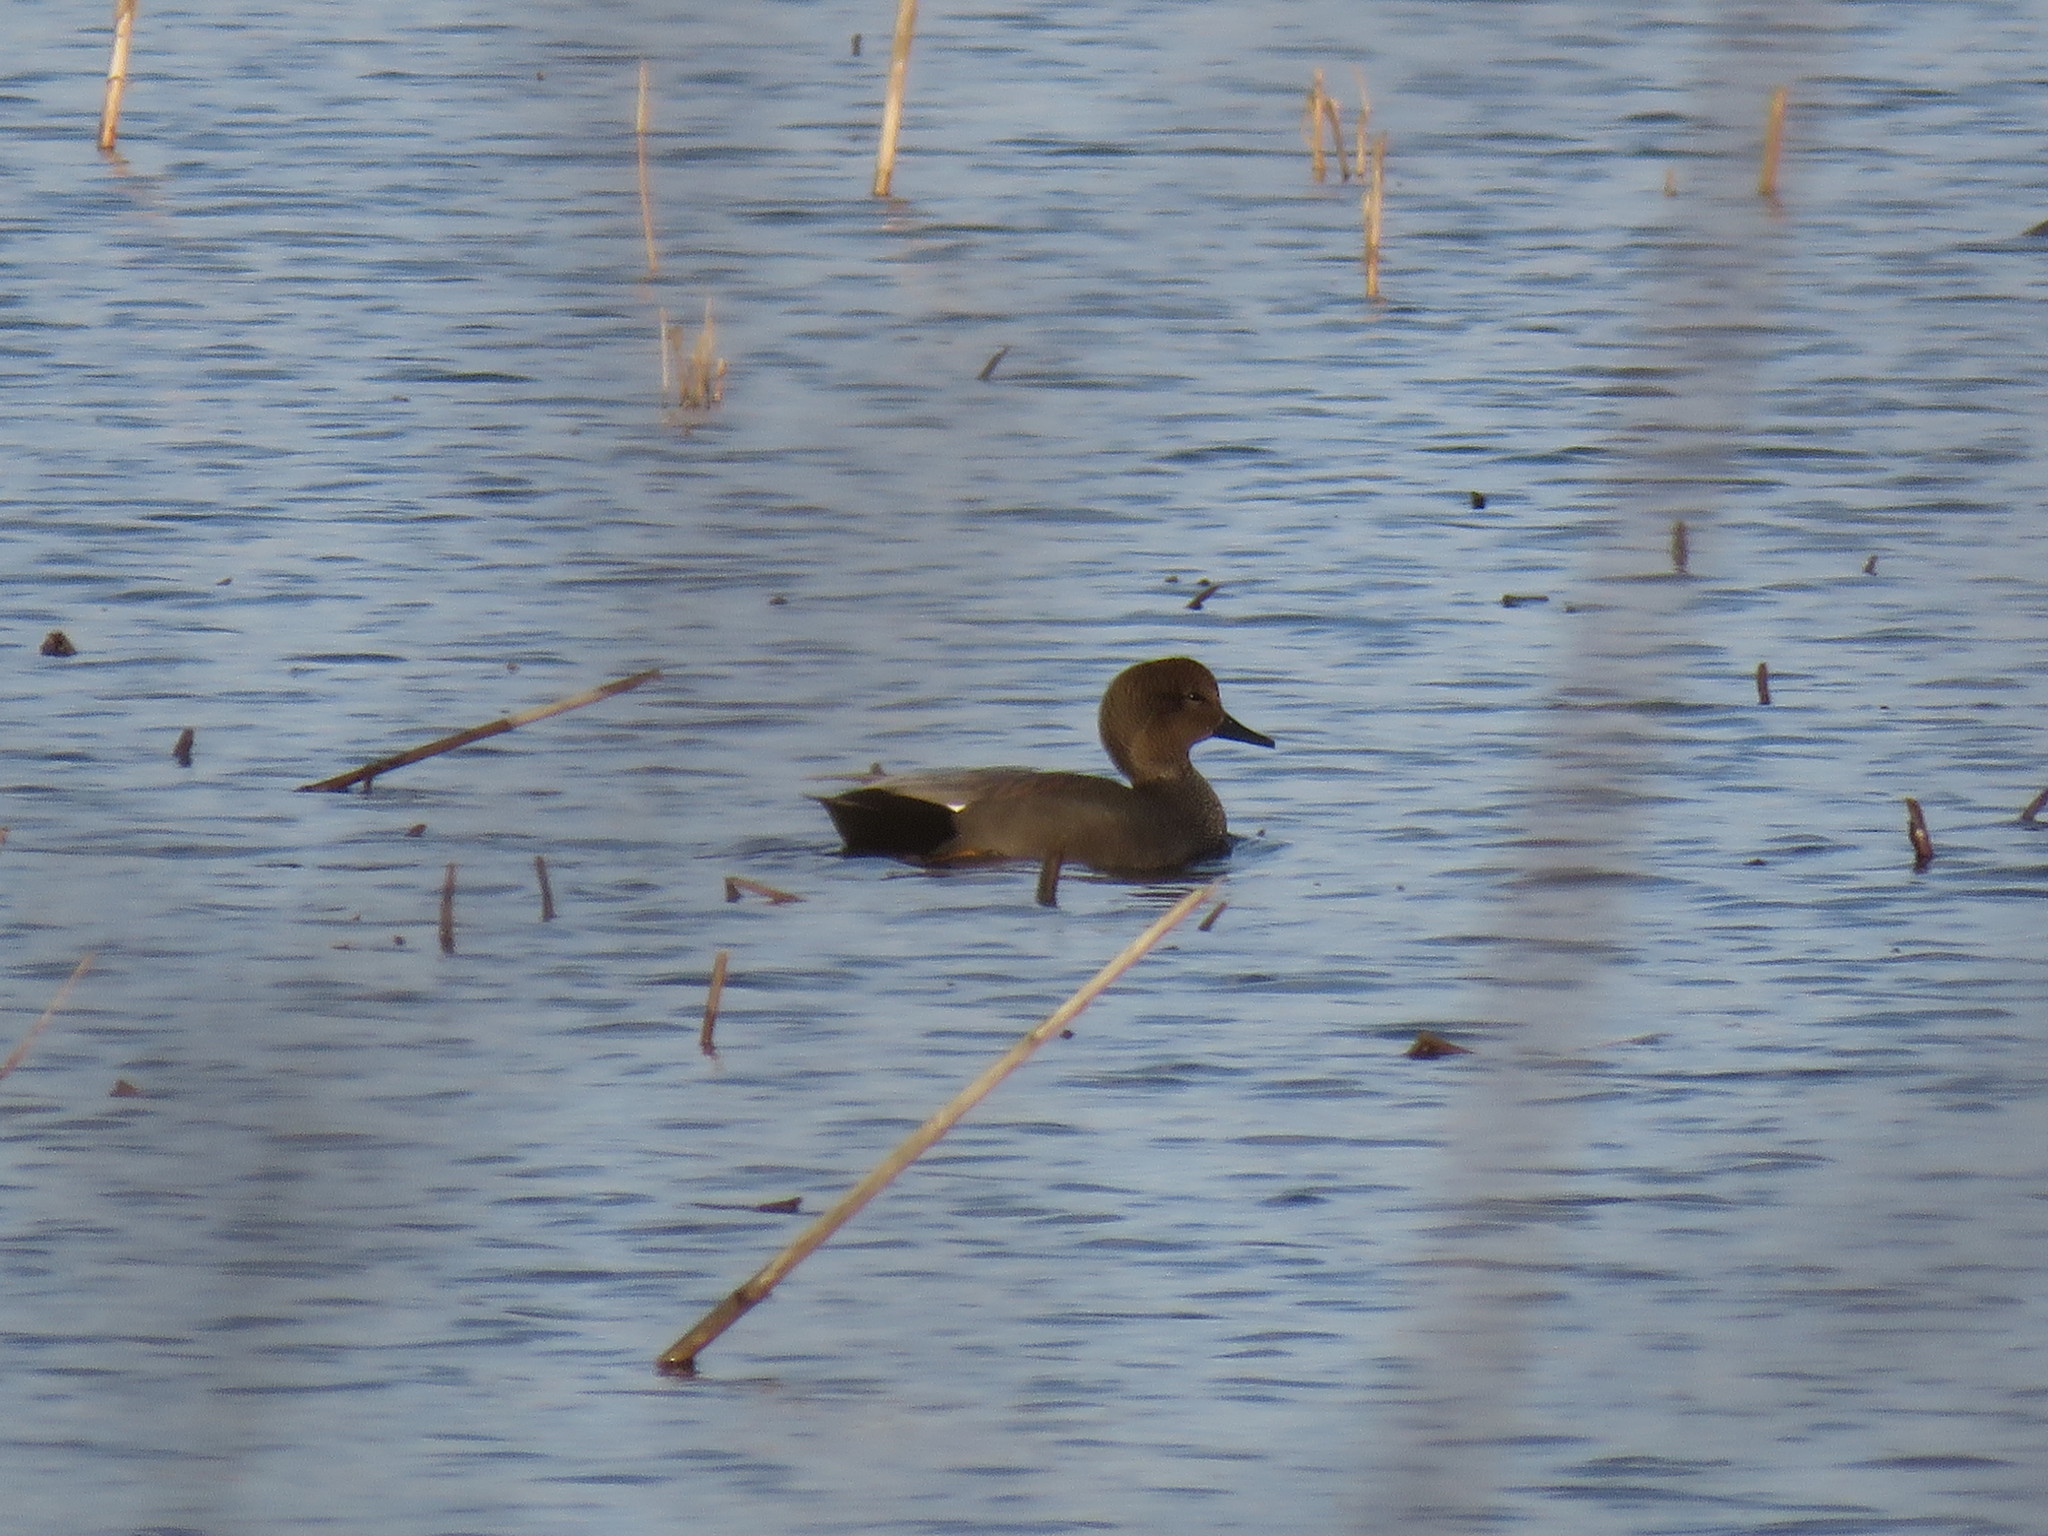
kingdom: Animalia
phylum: Chordata
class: Aves
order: Anseriformes
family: Anatidae
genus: Mareca
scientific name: Mareca strepera
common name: Gadwall
